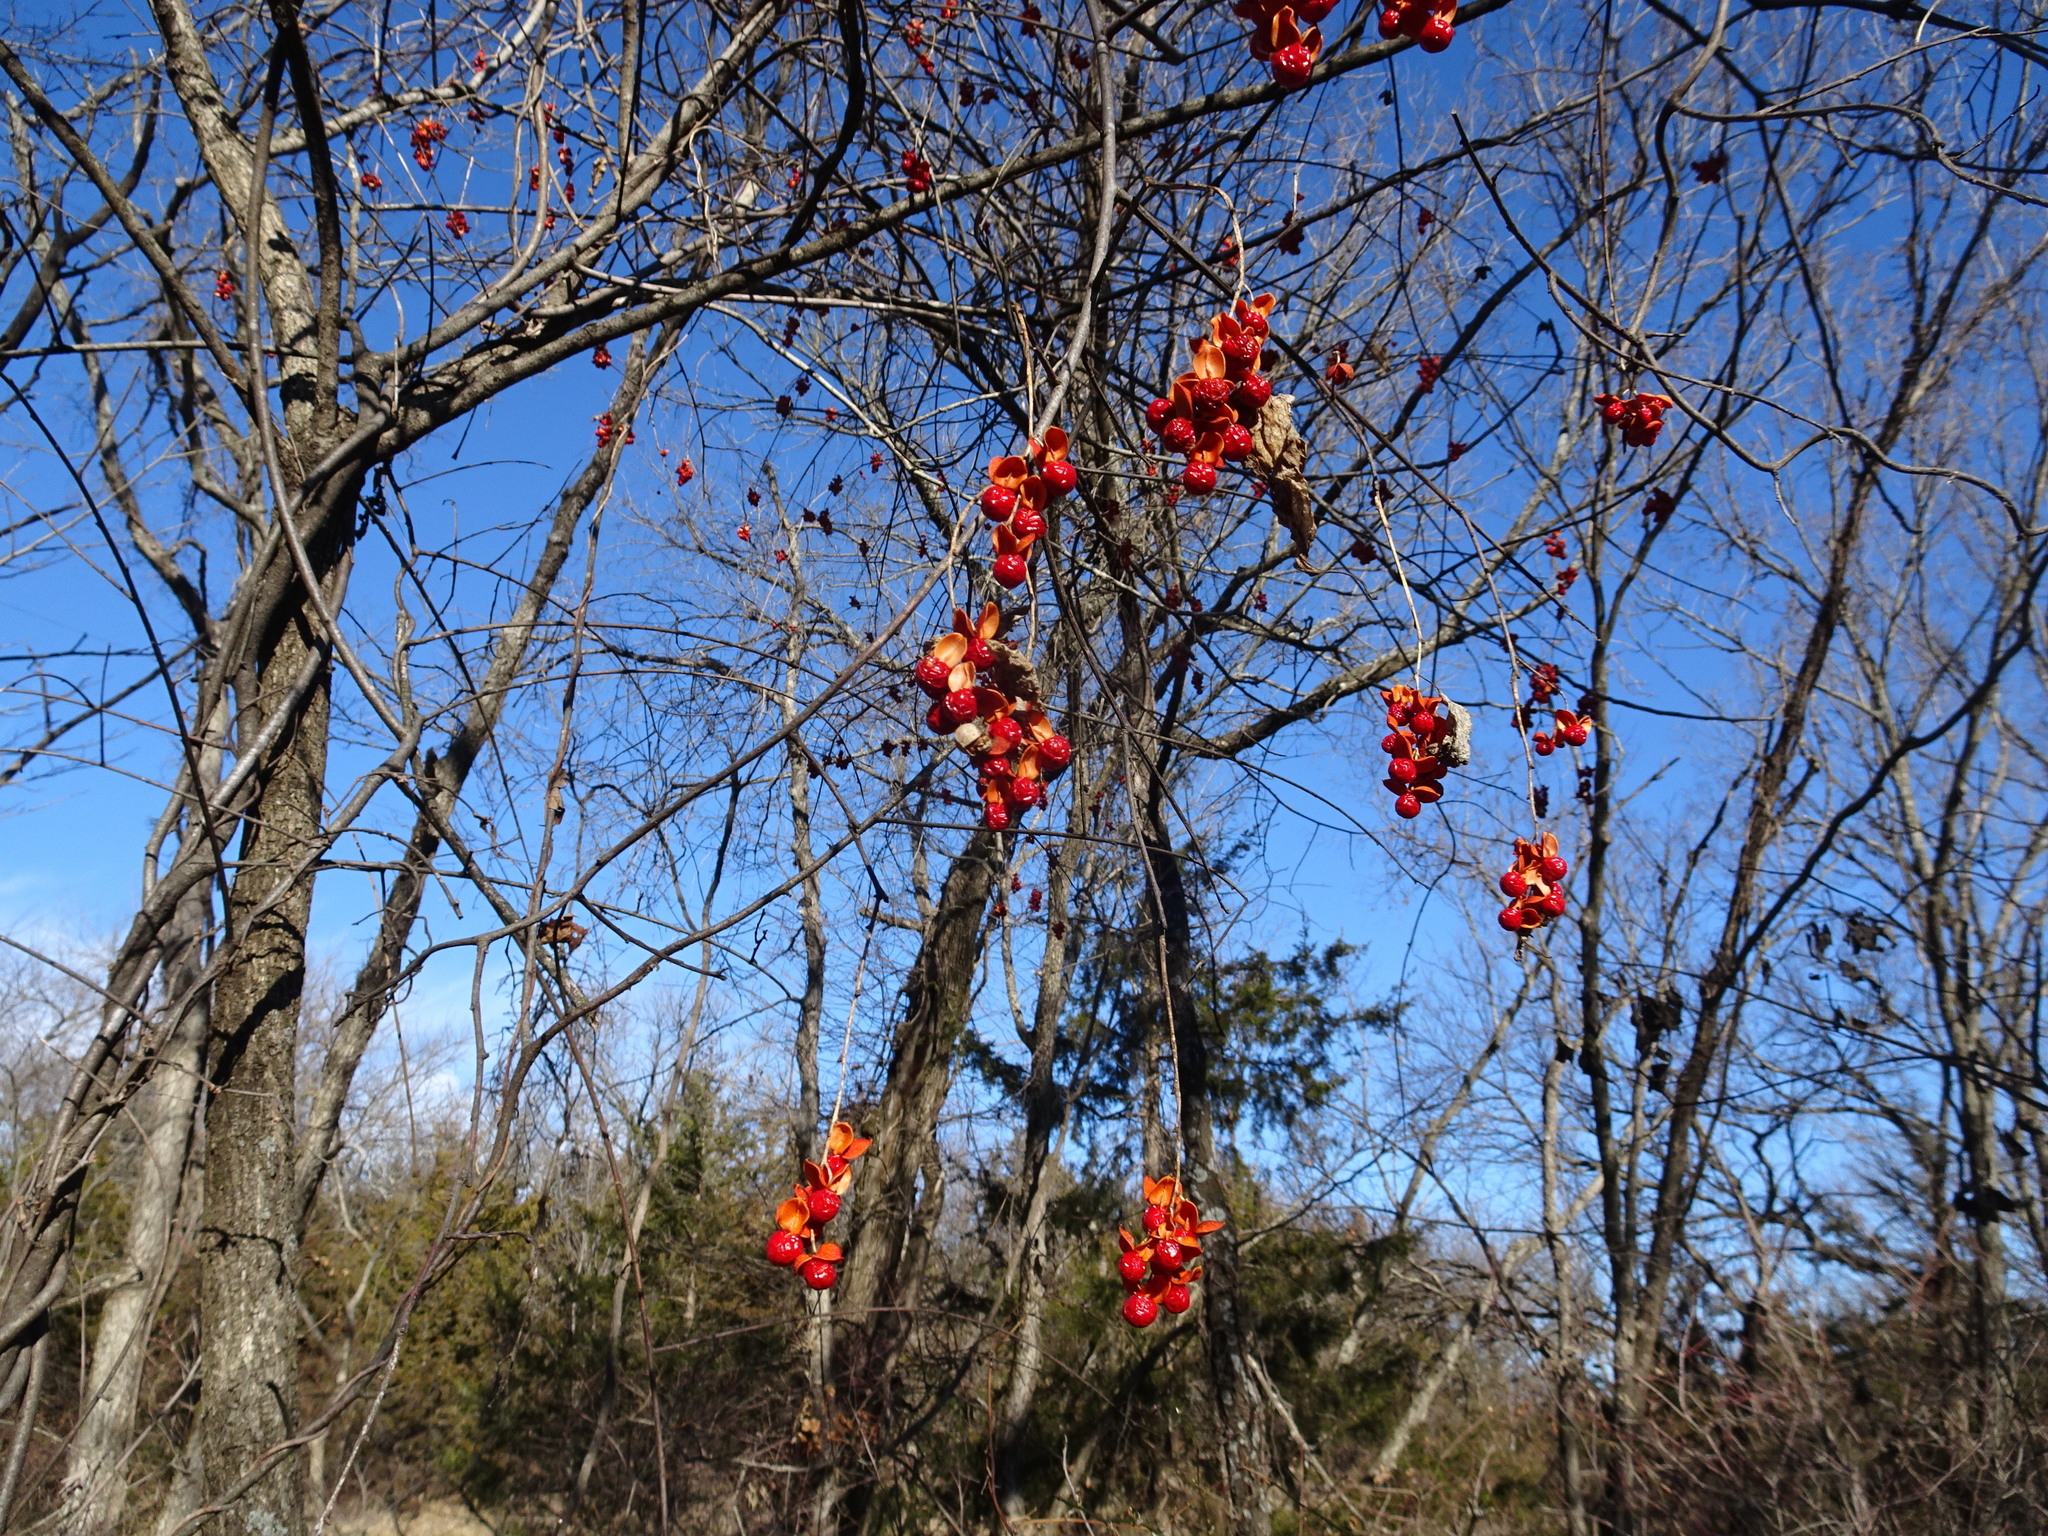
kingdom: Plantae
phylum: Tracheophyta
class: Magnoliopsida
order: Celastrales
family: Celastraceae
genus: Celastrus
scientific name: Celastrus scandens
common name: American bittersweet
